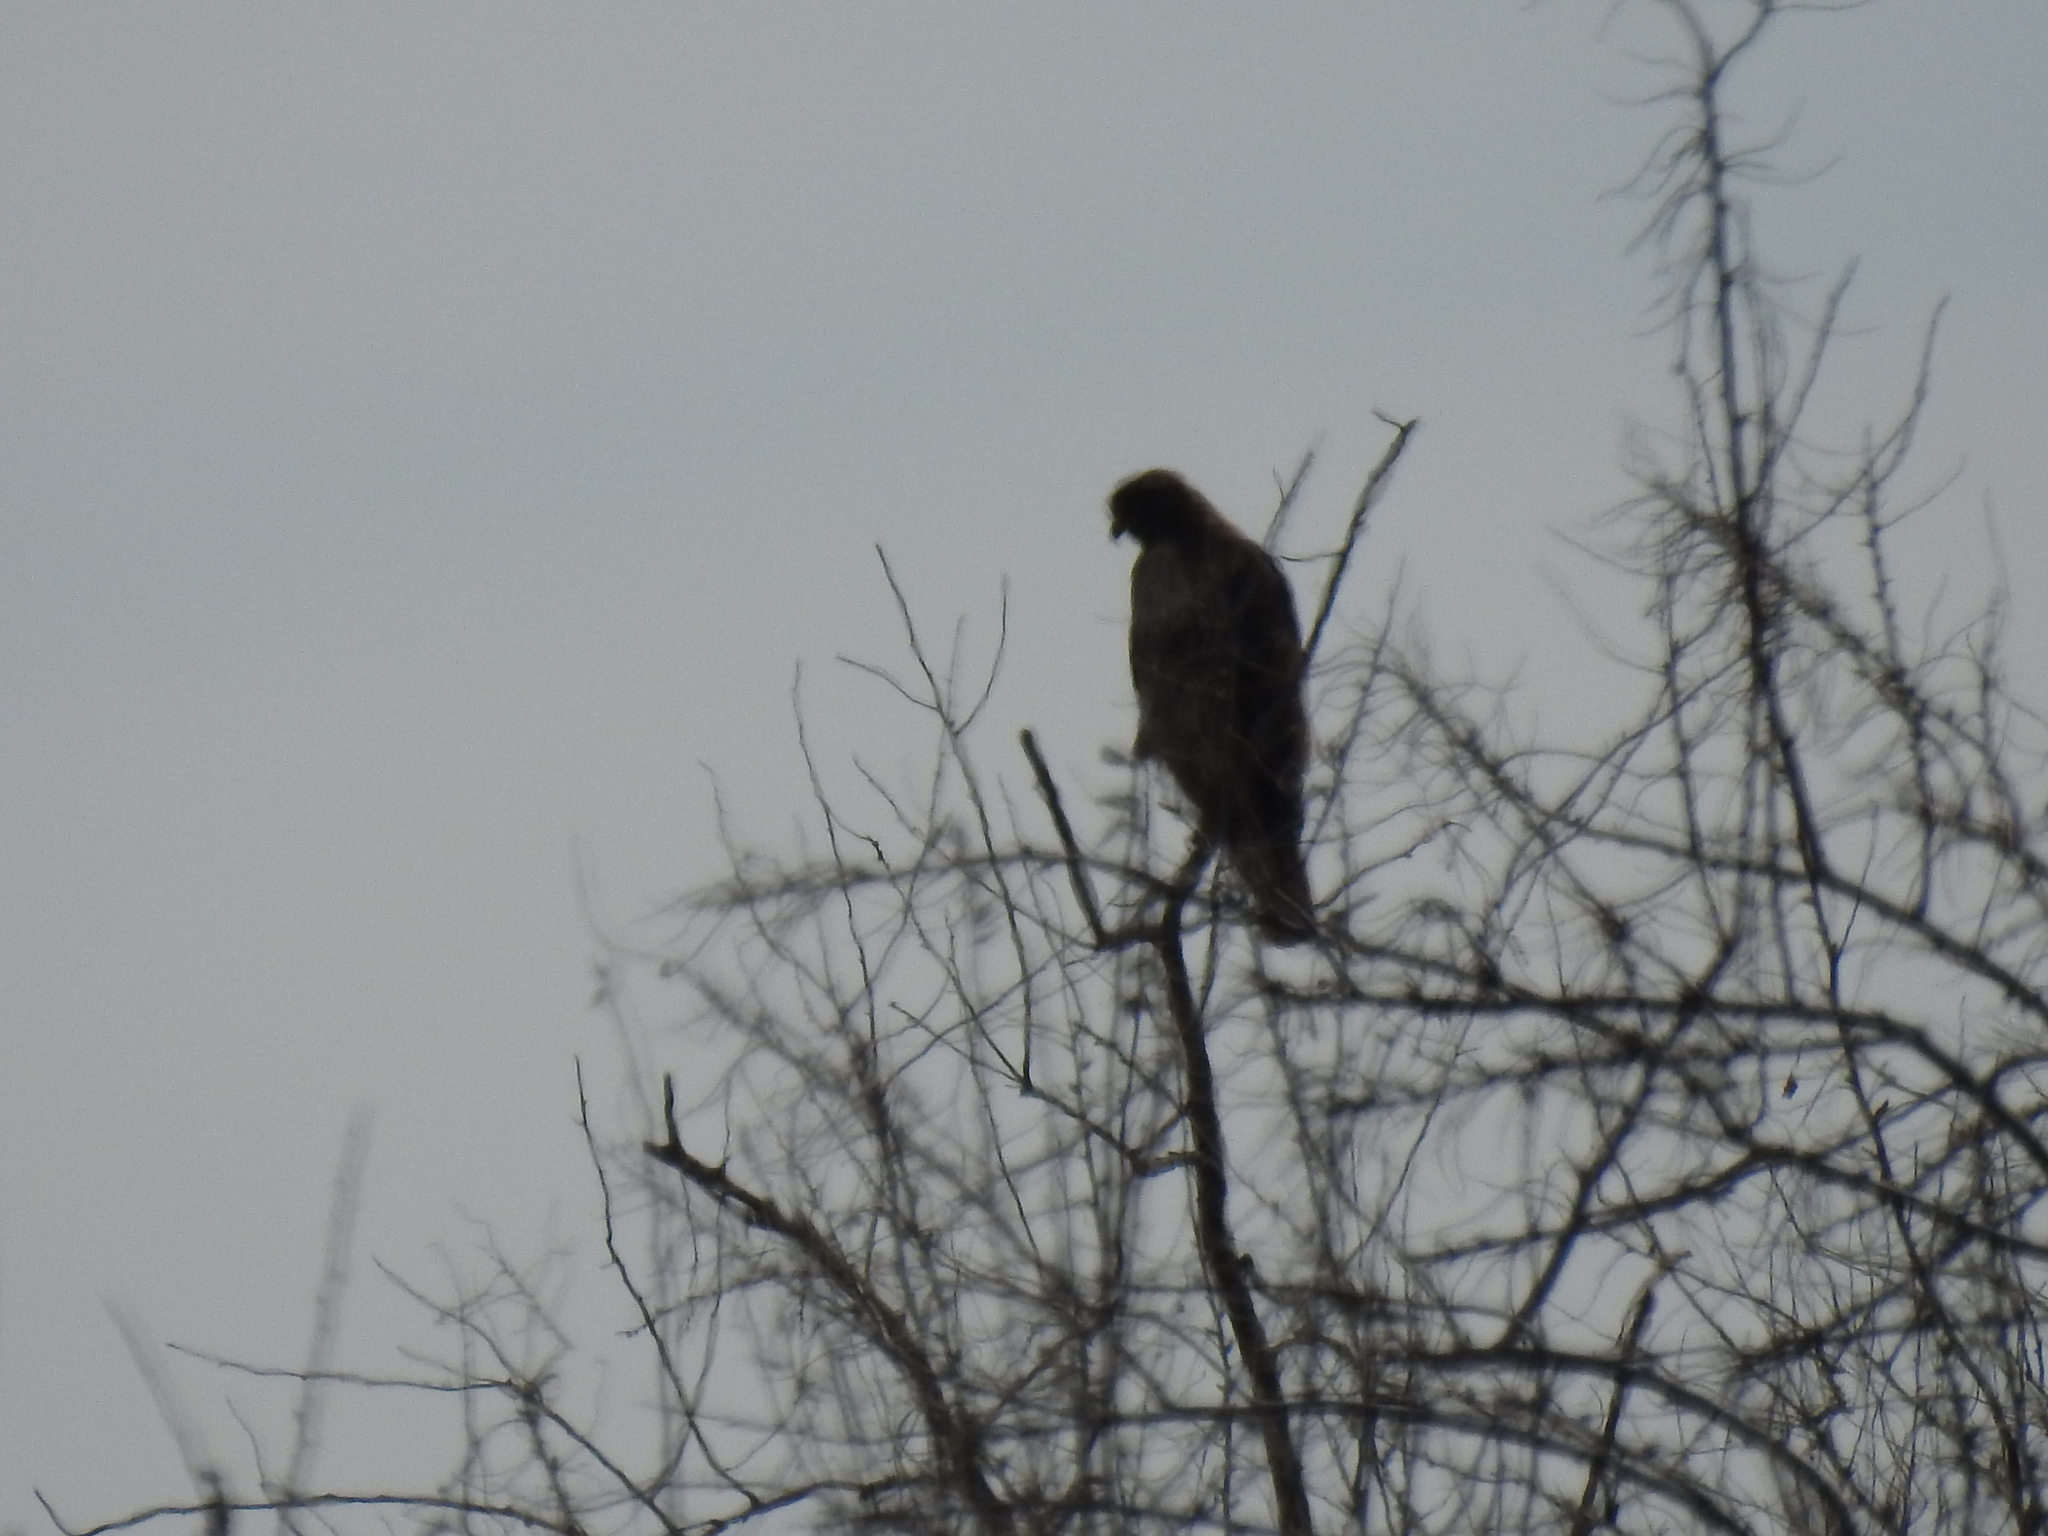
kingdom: Animalia
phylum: Chordata
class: Aves
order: Accipitriformes
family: Accipitridae
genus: Buteo
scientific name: Buteo jamaicensis
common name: Red-tailed hawk
